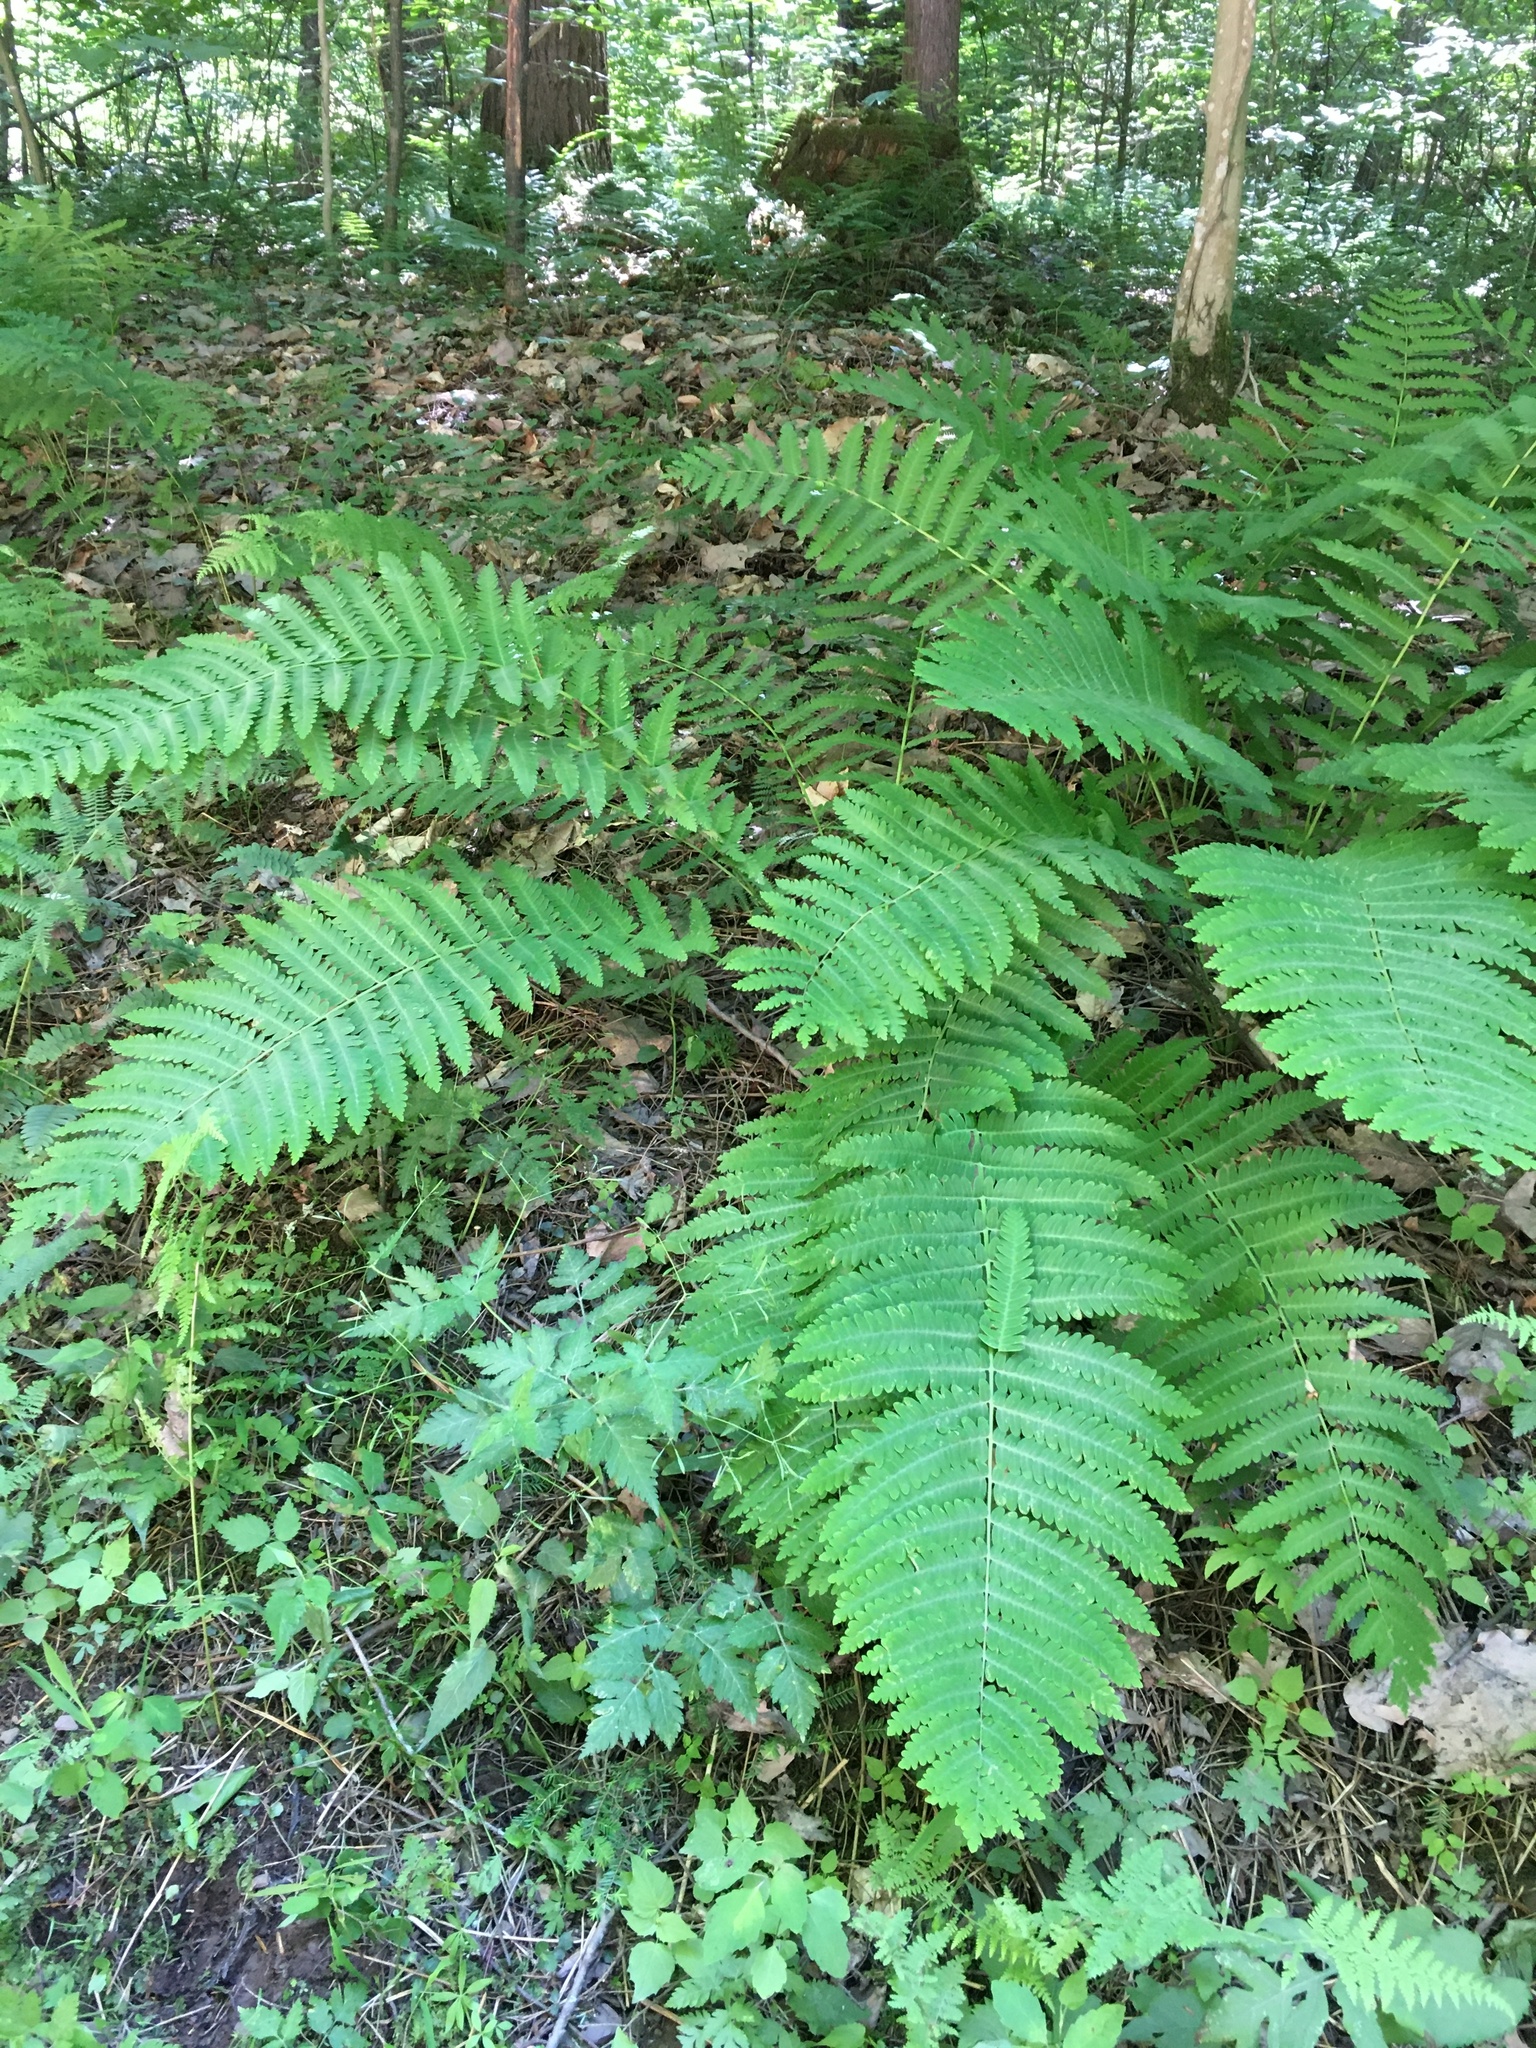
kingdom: Plantae
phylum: Tracheophyta
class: Polypodiopsida
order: Osmundales
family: Osmundaceae
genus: Claytosmunda
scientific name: Claytosmunda claytoniana
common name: Clayton's fern
